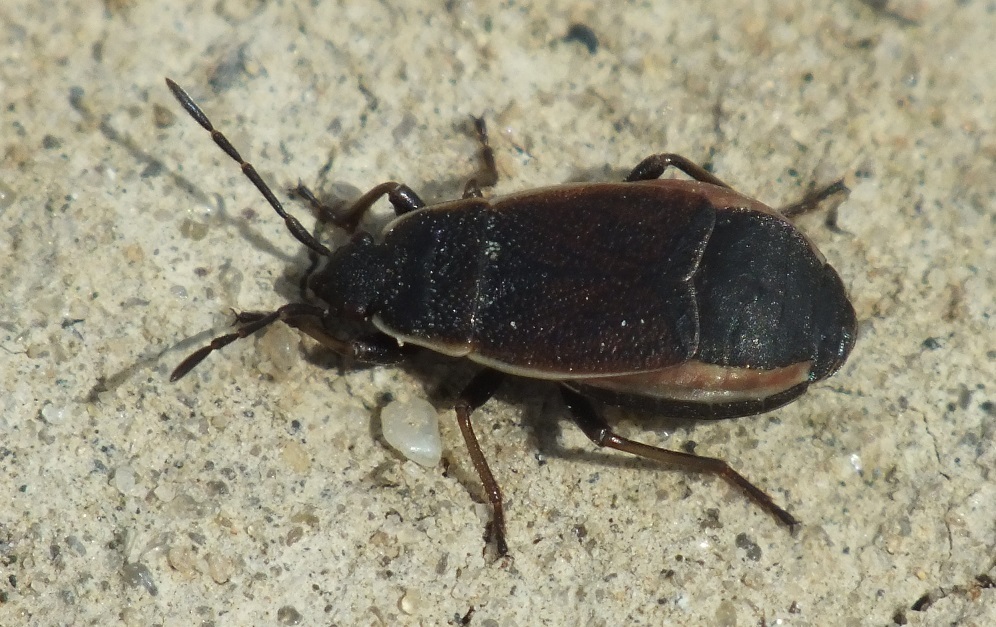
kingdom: Animalia
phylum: Arthropoda
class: Insecta
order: Hemiptera
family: Pyrrhocoridae
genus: Pyrrhocoris
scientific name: Pyrrhocoris marginatus
